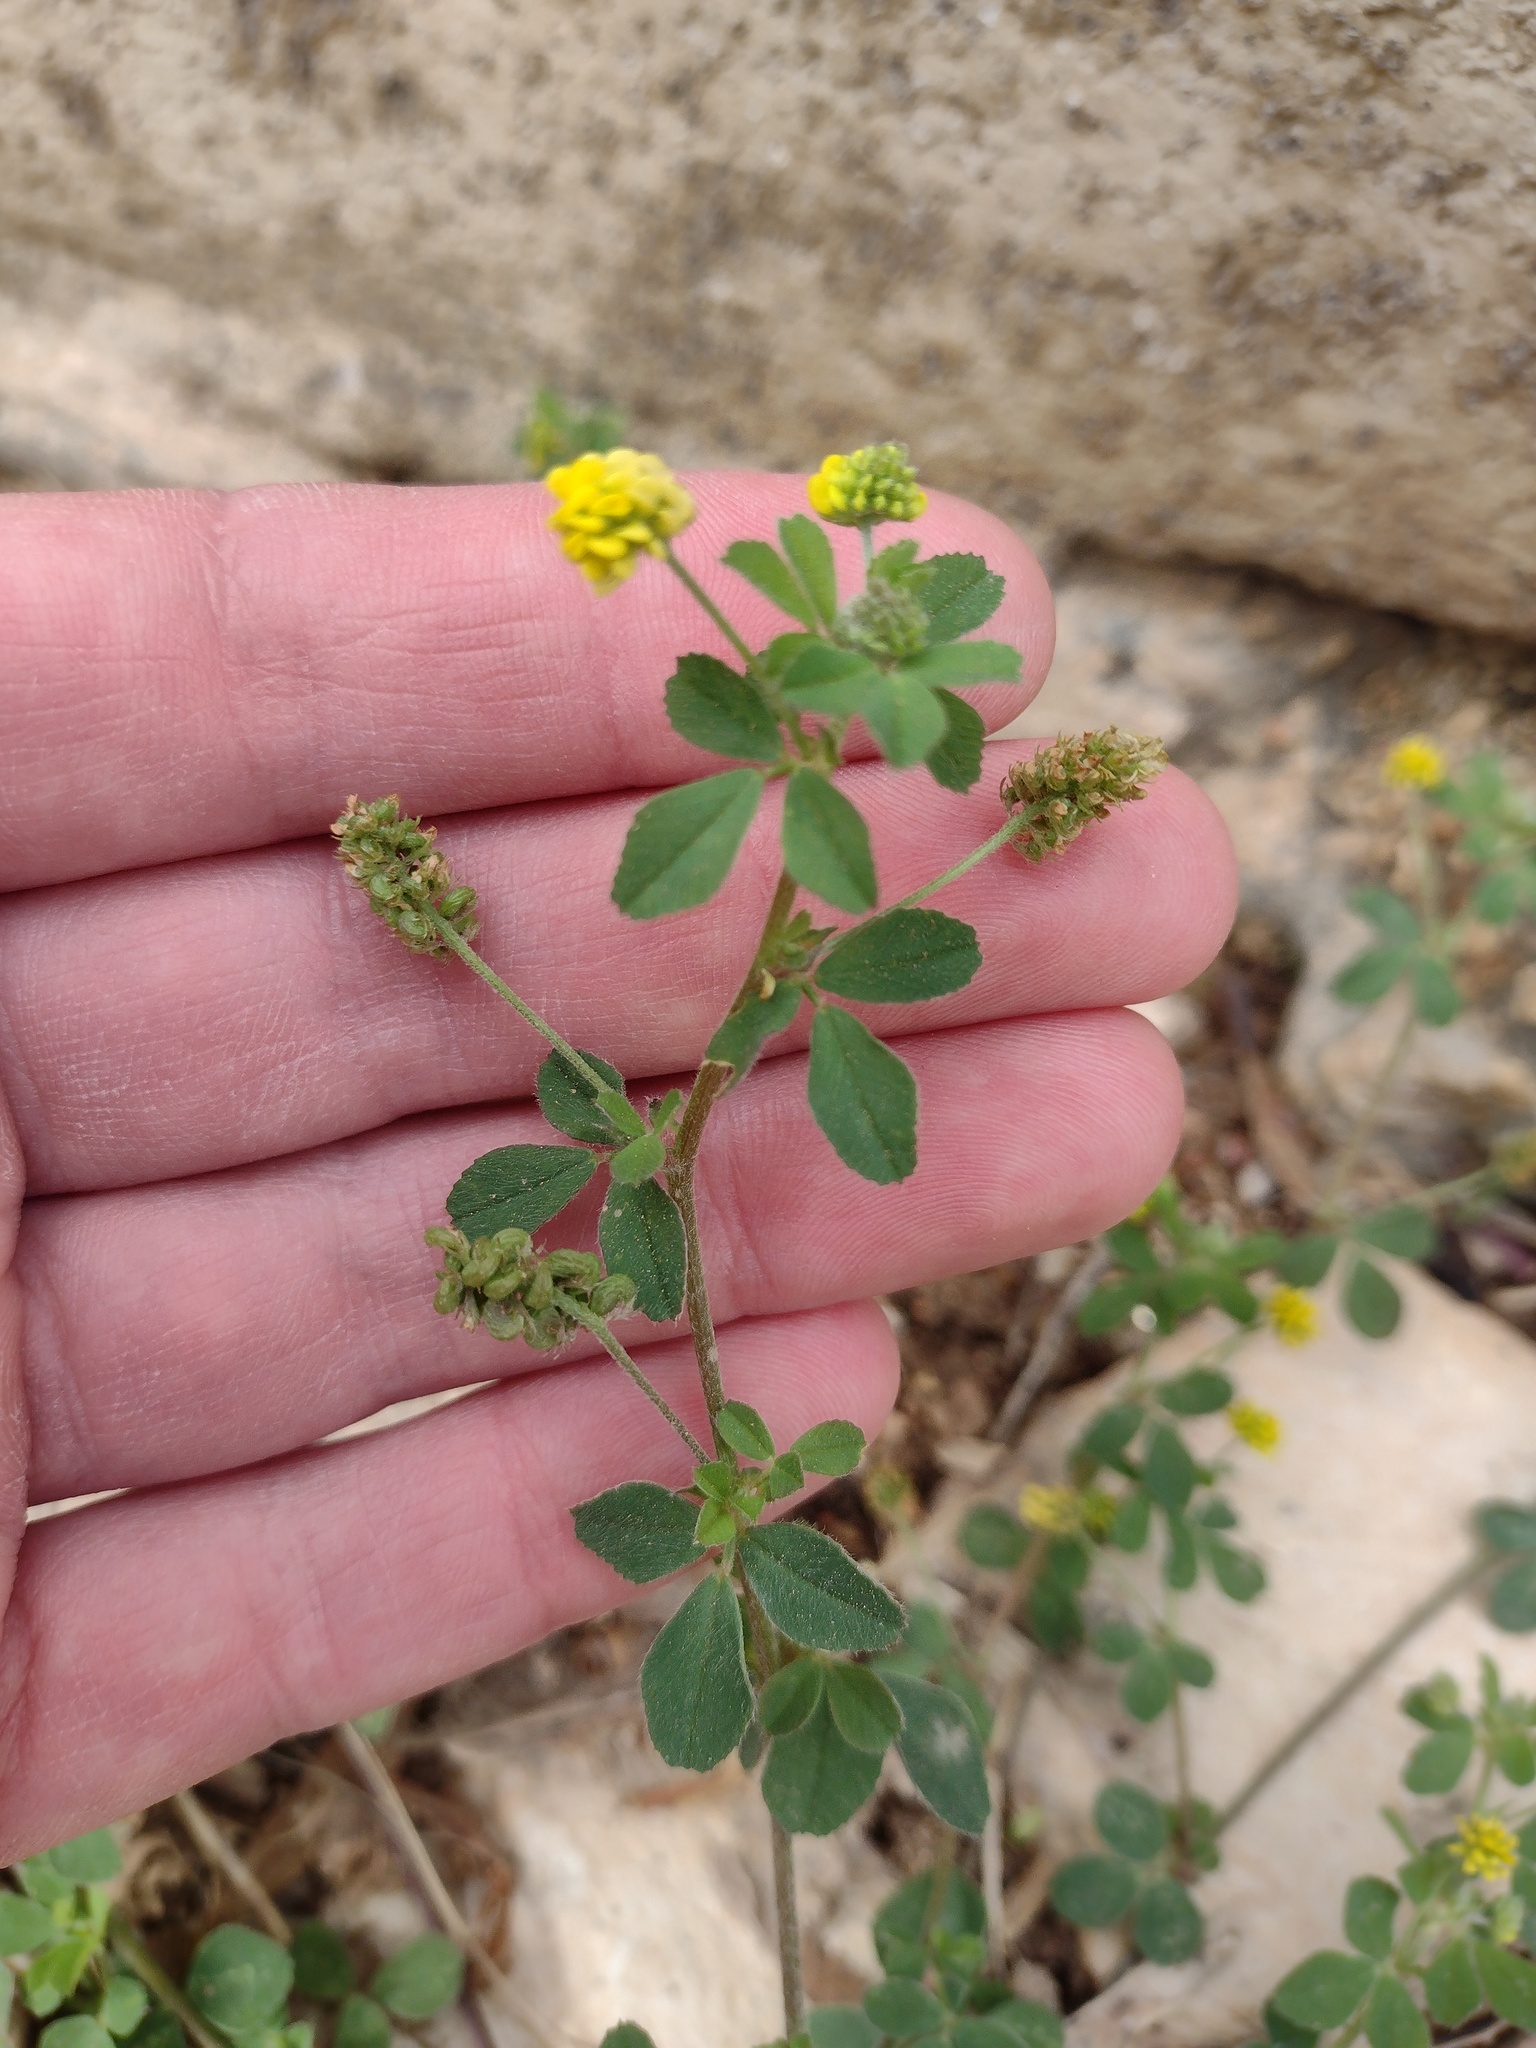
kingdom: Plantae
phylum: Tracheophyta
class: Magnoliopsida
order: Fabales
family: Fabaceae
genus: Medicago
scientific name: Medicago lupulina
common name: Black medick
